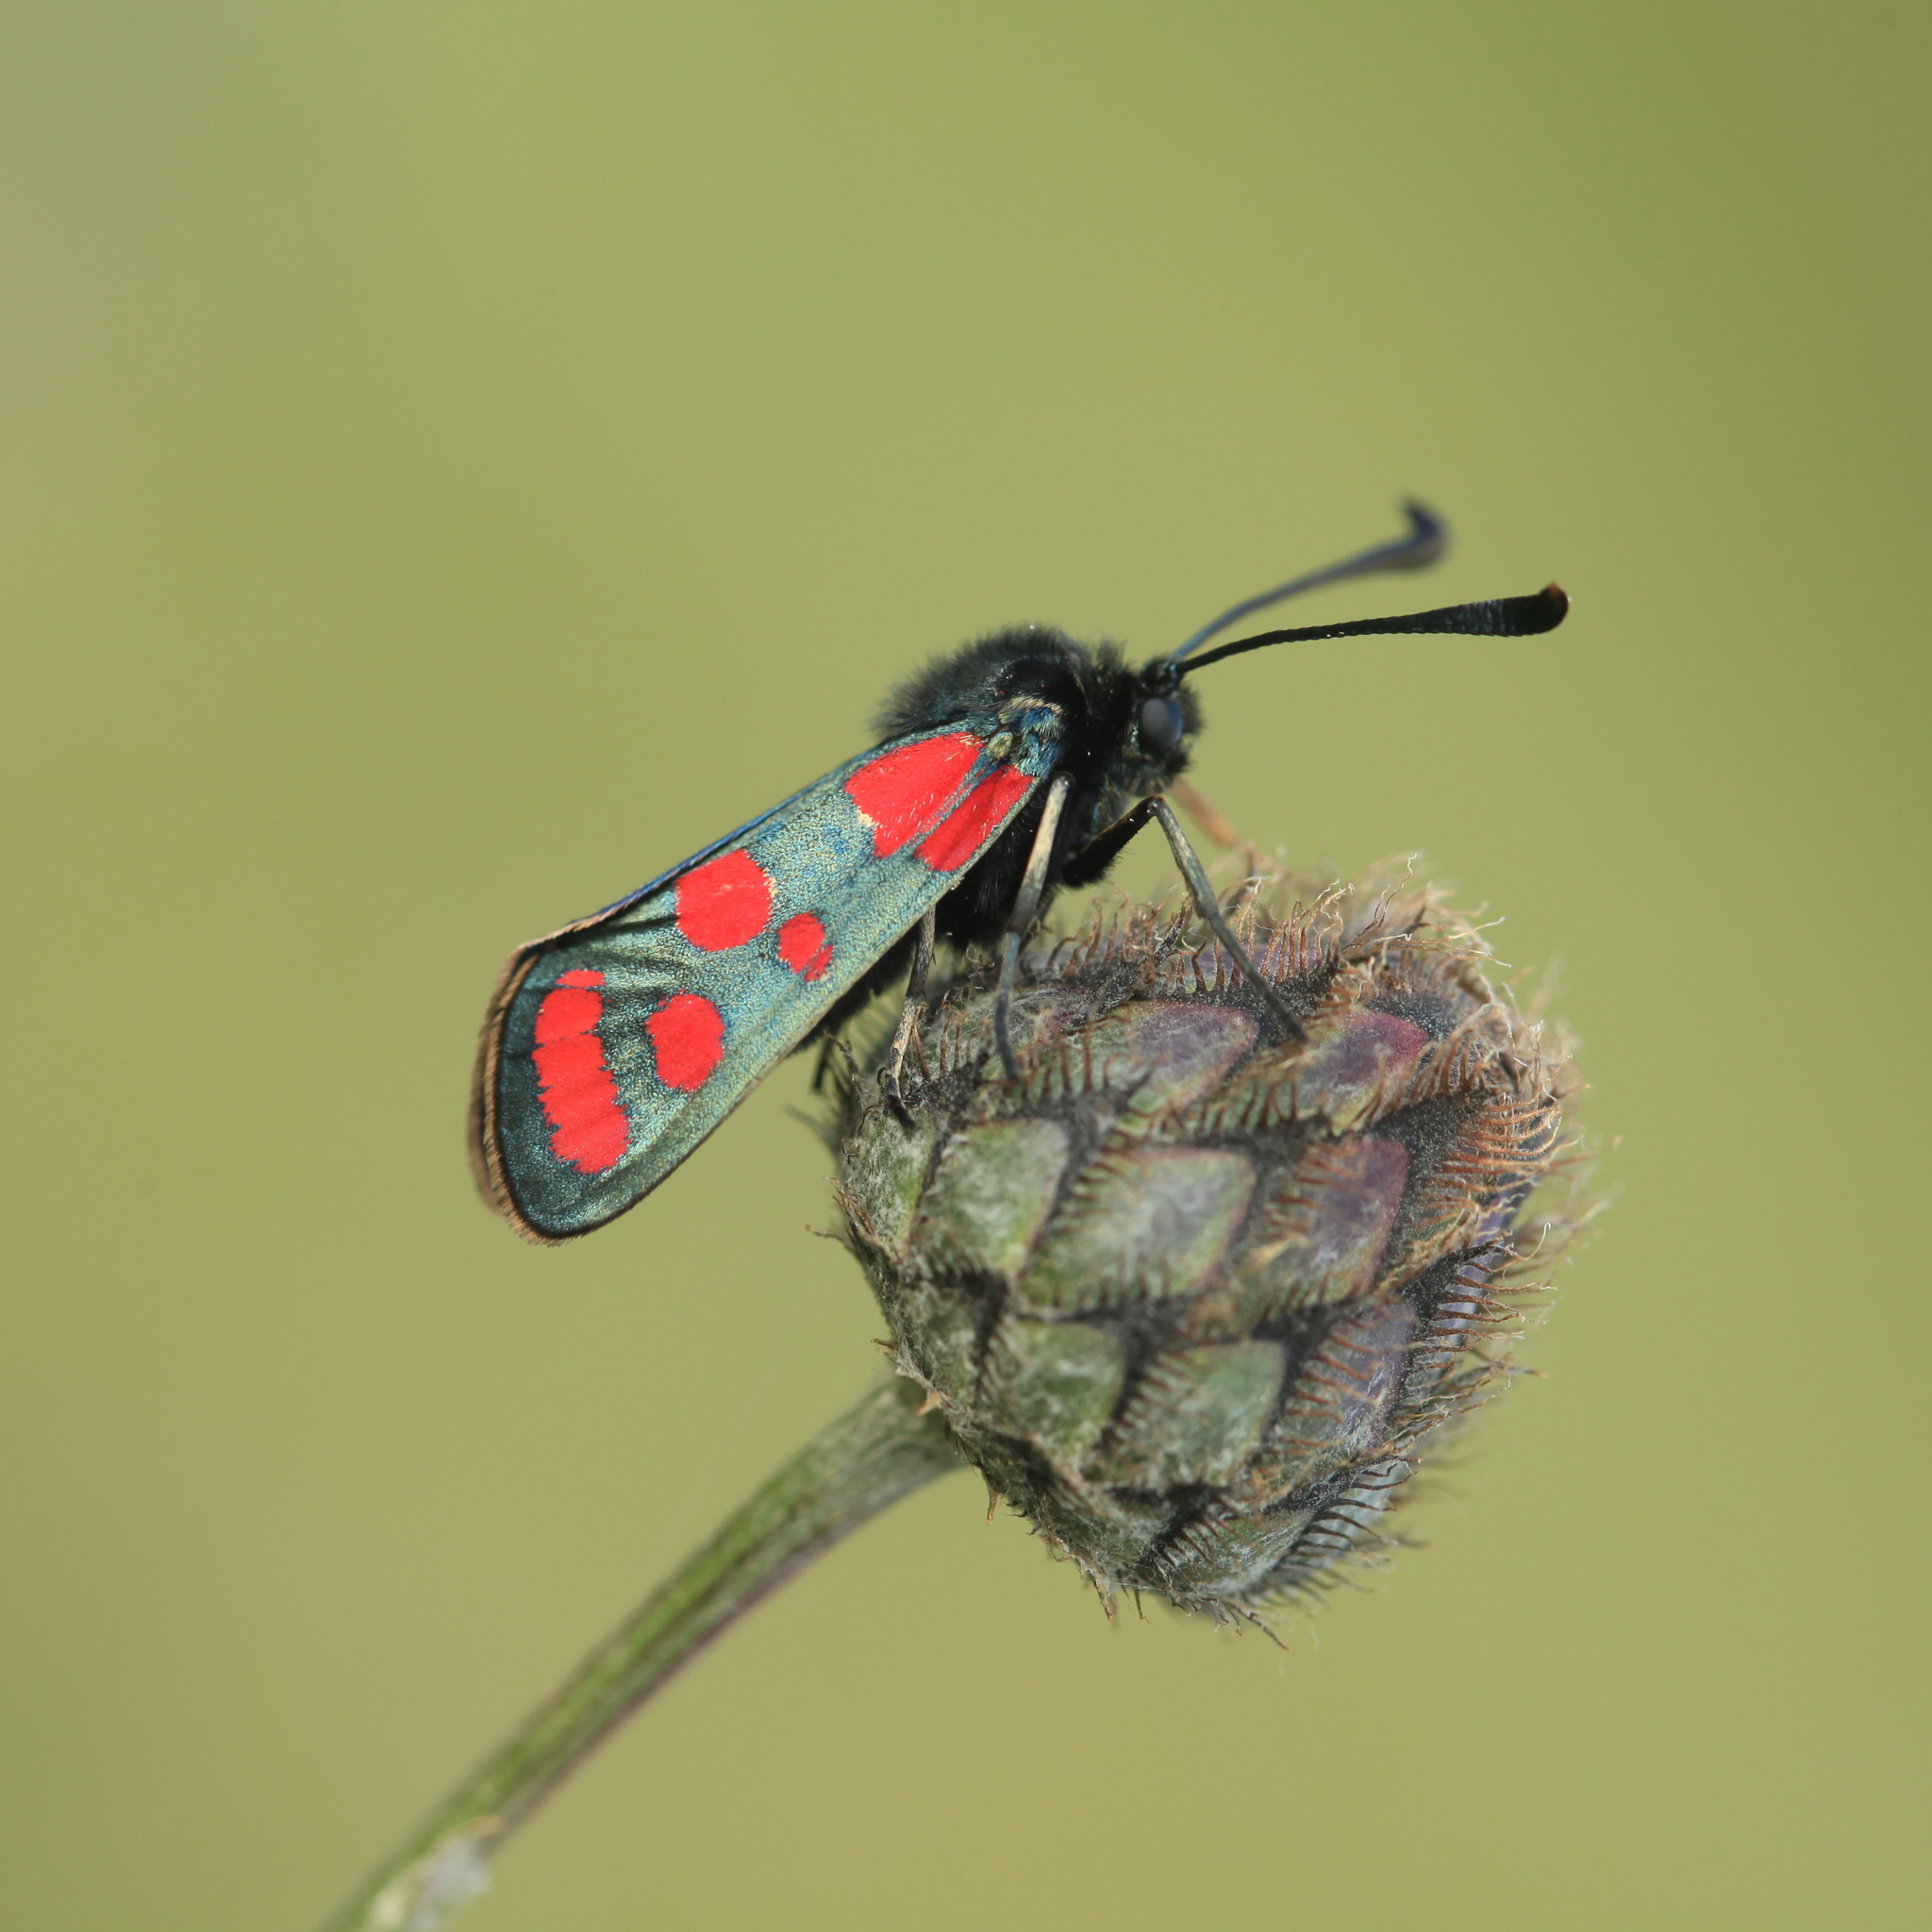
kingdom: Animalia
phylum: Arthropoda
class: Insecta
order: Lepidoptera
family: Zygaenidae
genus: Zygaena
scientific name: Zygaena carniolica
